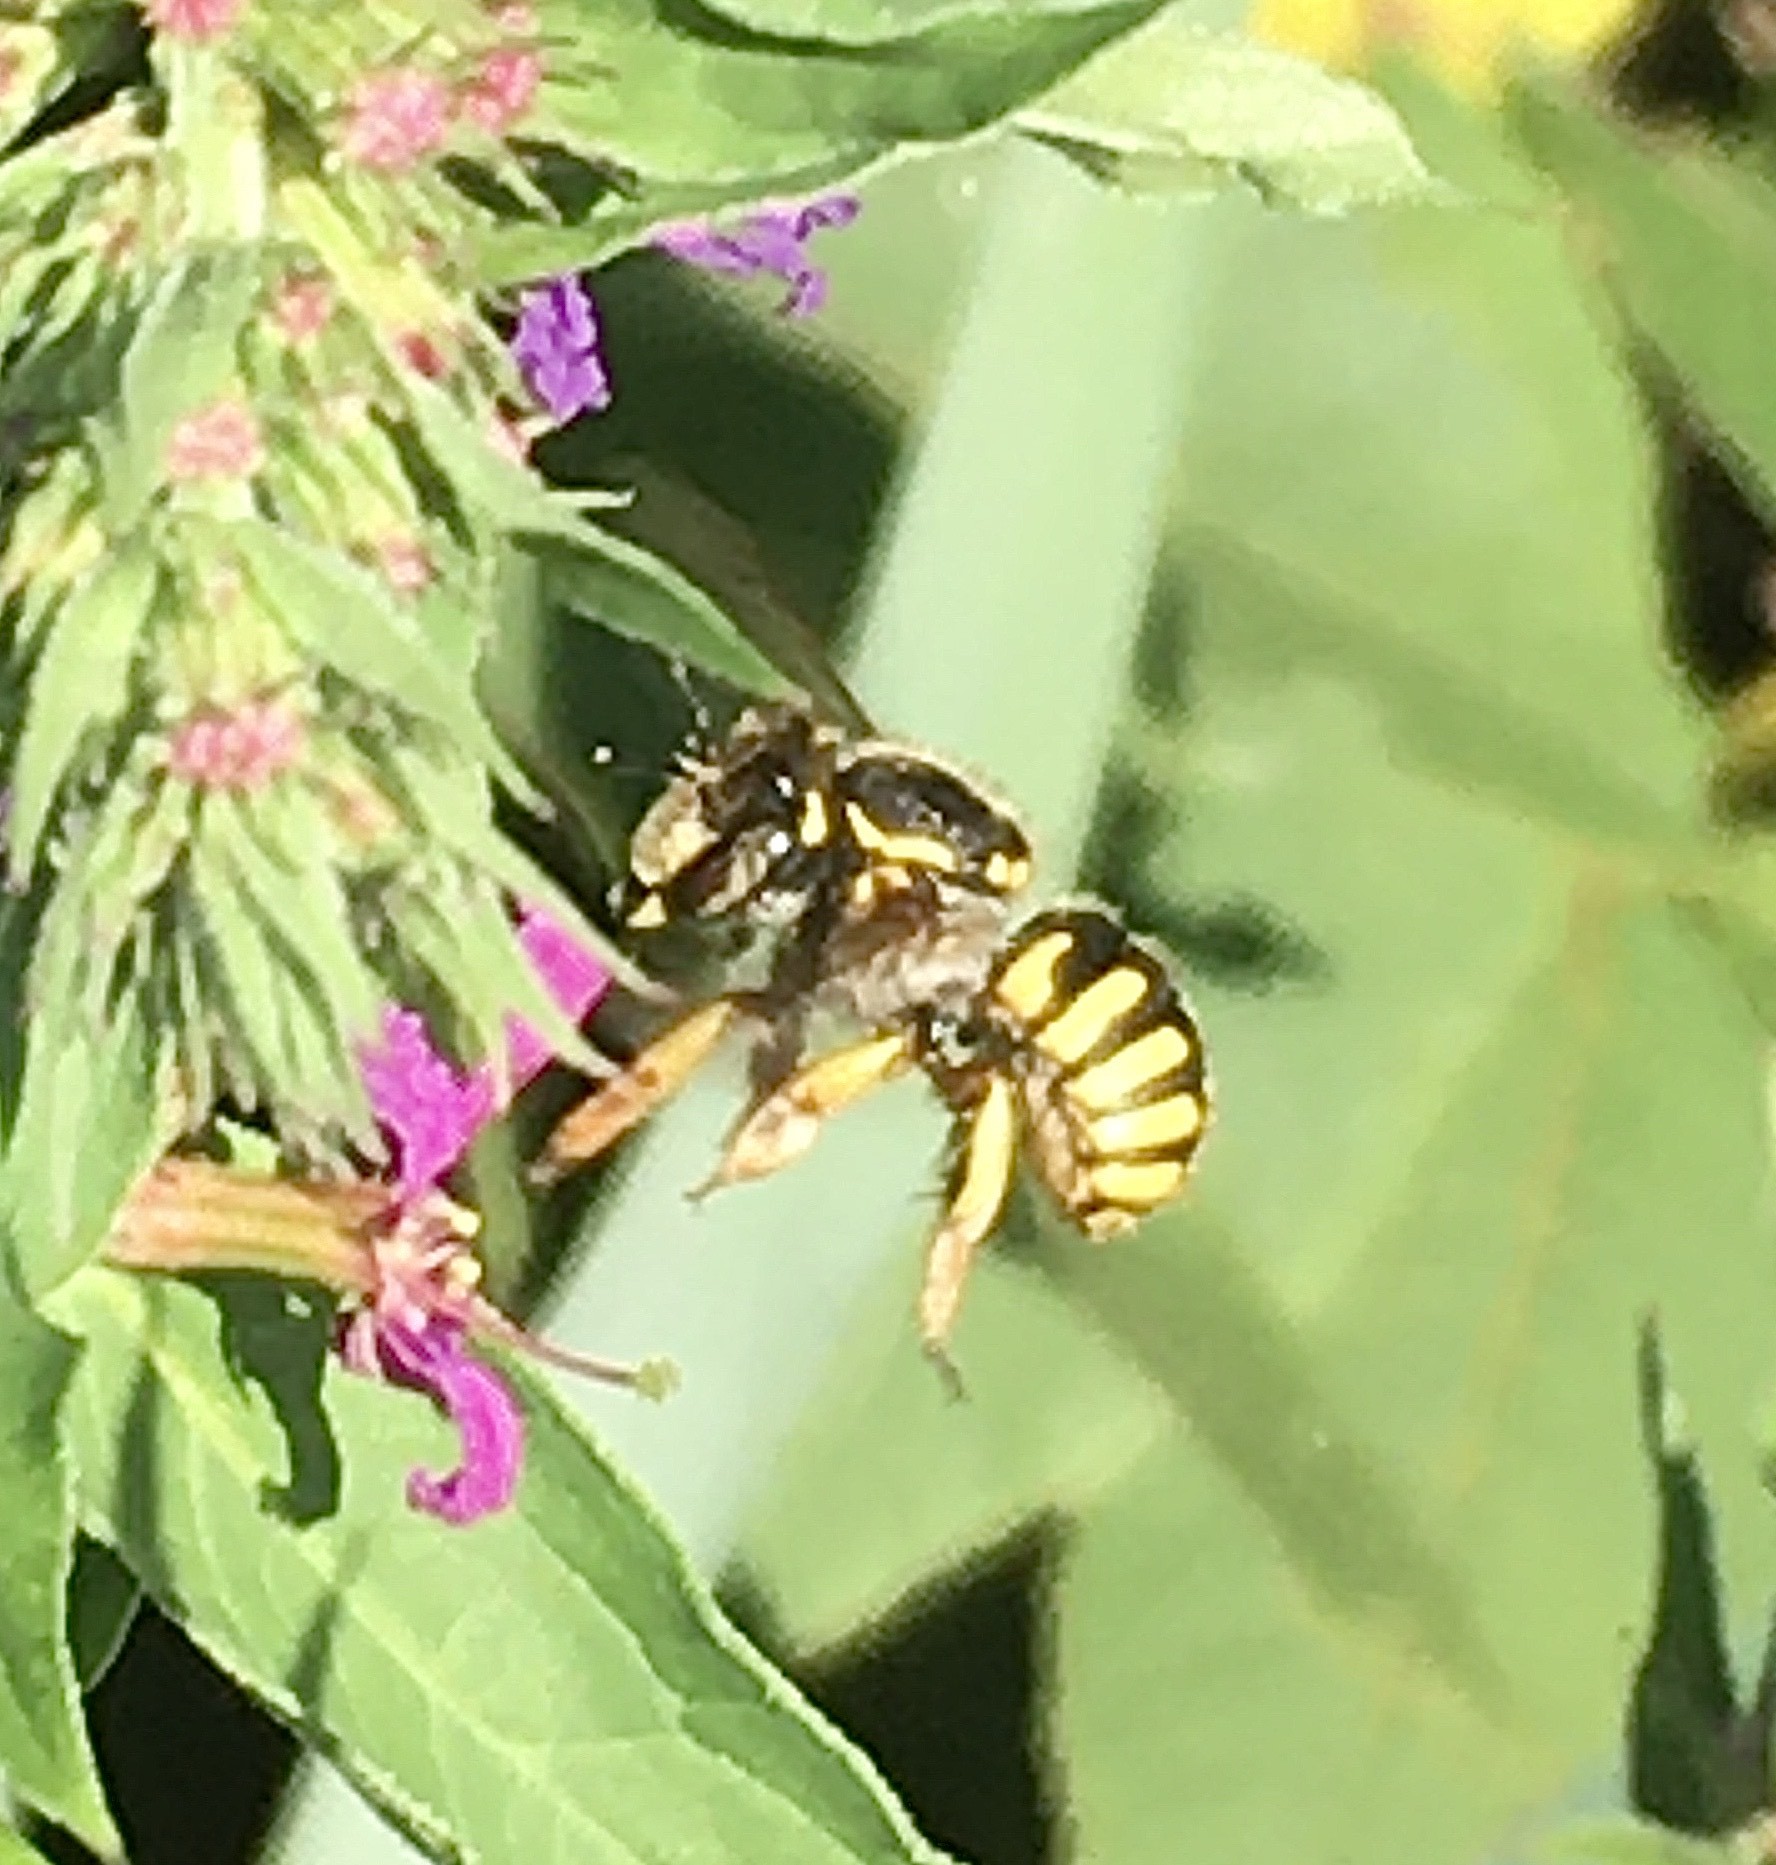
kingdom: Animalia
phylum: Arthropoda
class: Insecta
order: Hymenoptera
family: Megachilidae
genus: Anthidium
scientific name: Anthidium manicatum
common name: Wool carder bee
